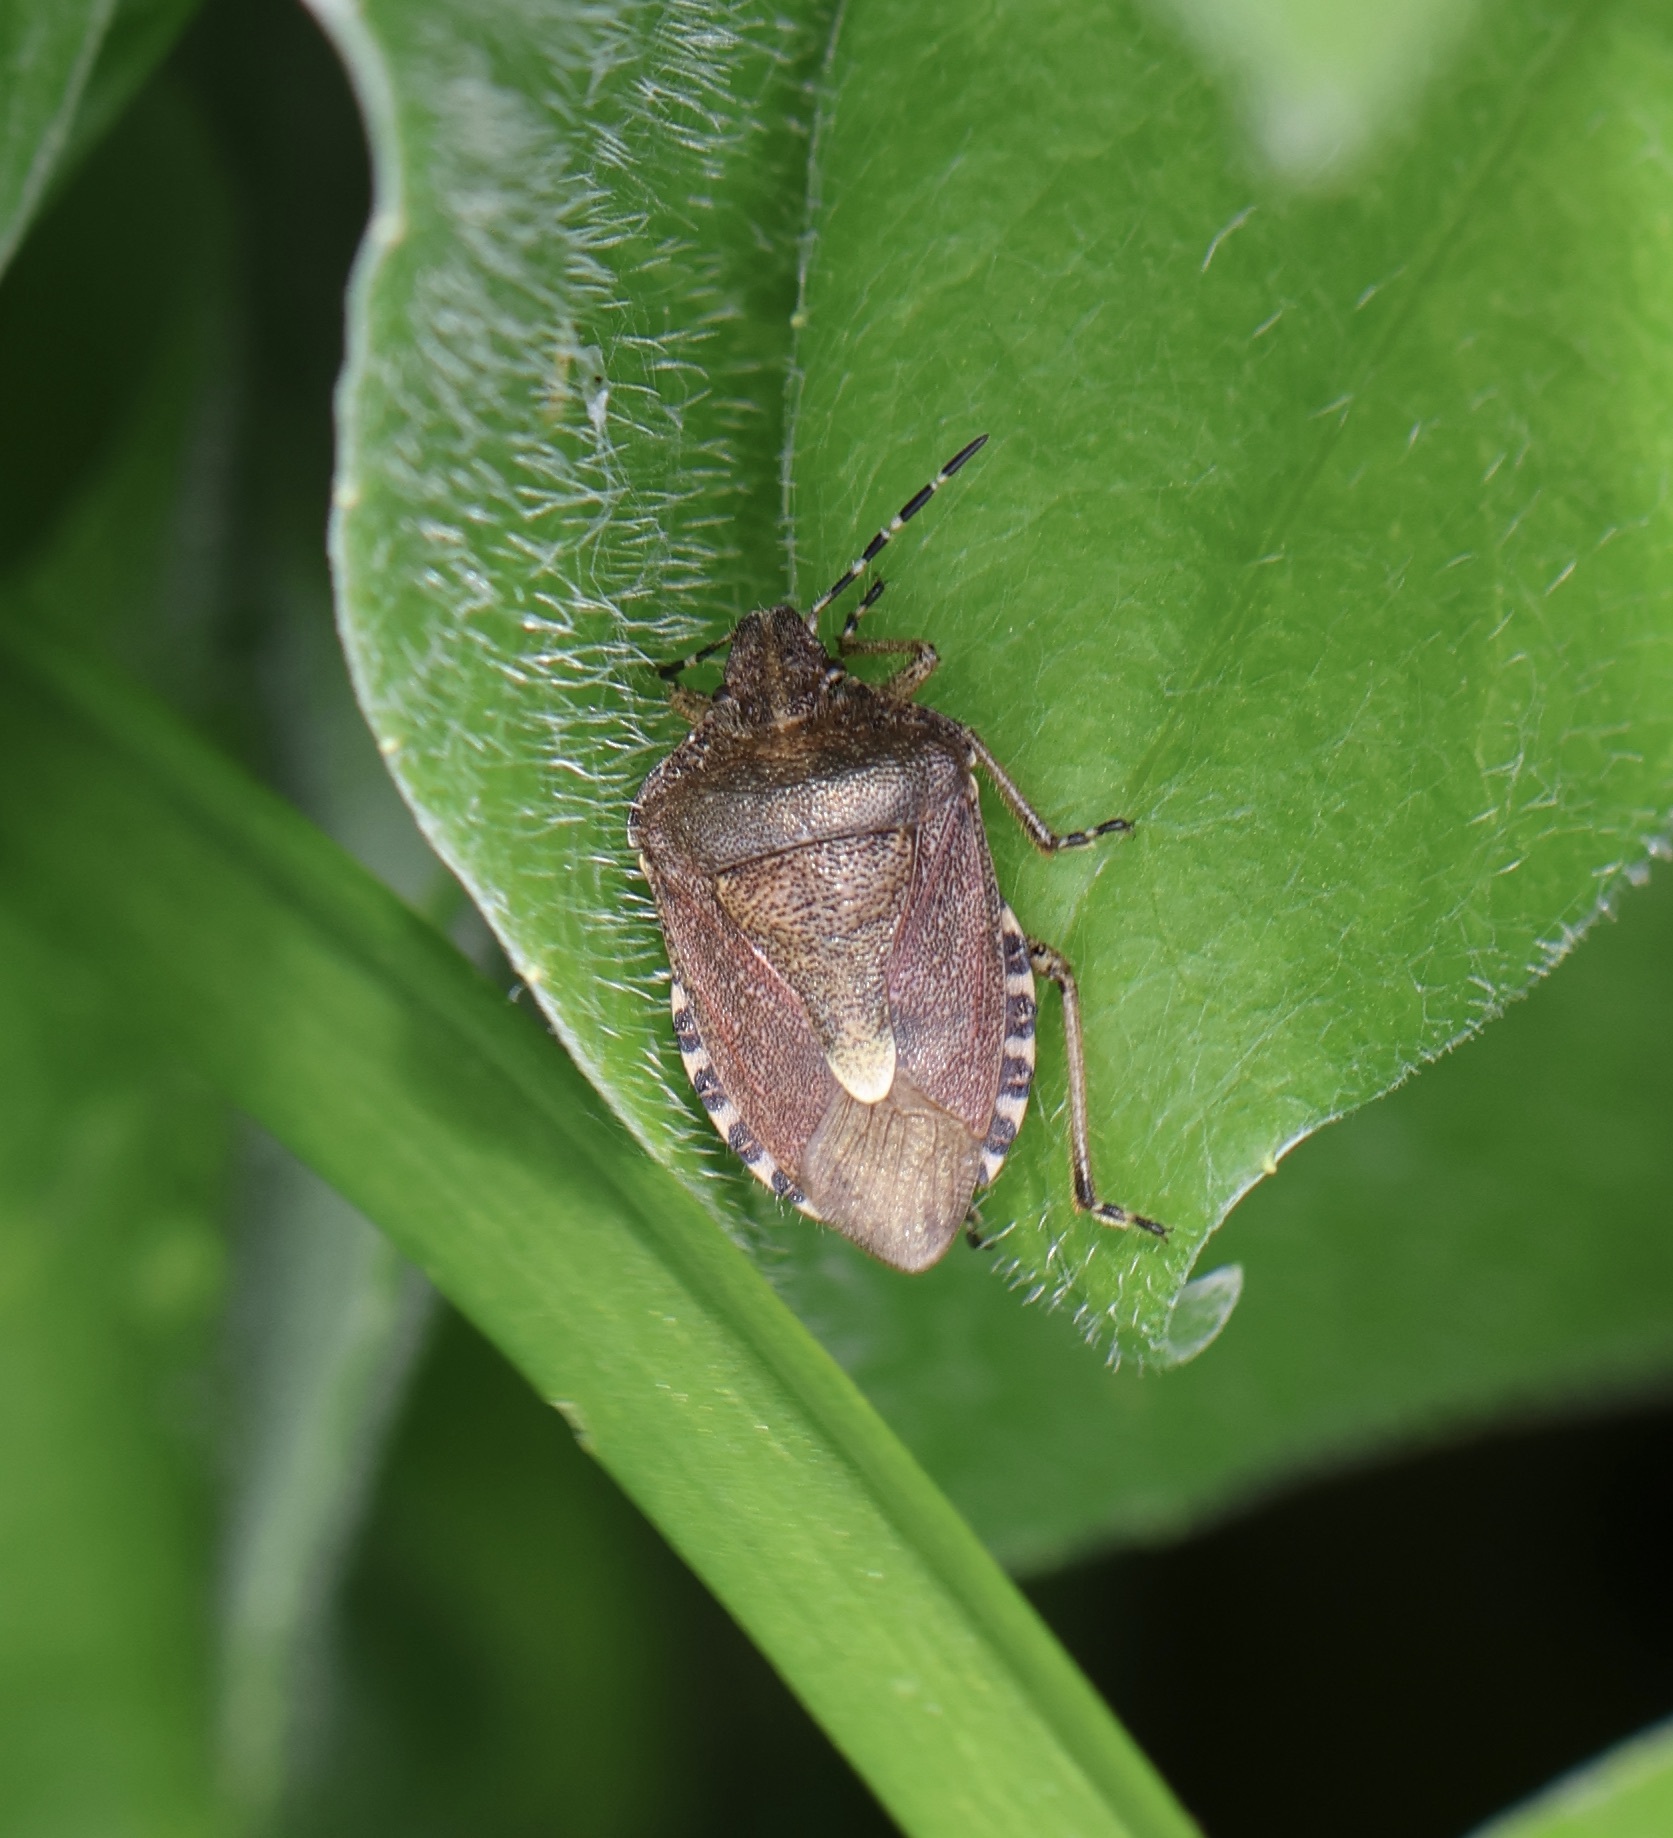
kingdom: Animalia
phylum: Arthropoda
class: Insecta
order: Hemiptera
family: Pentatomidae
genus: Dolycoris
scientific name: Dolycoris baccarum
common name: Sloe bug
